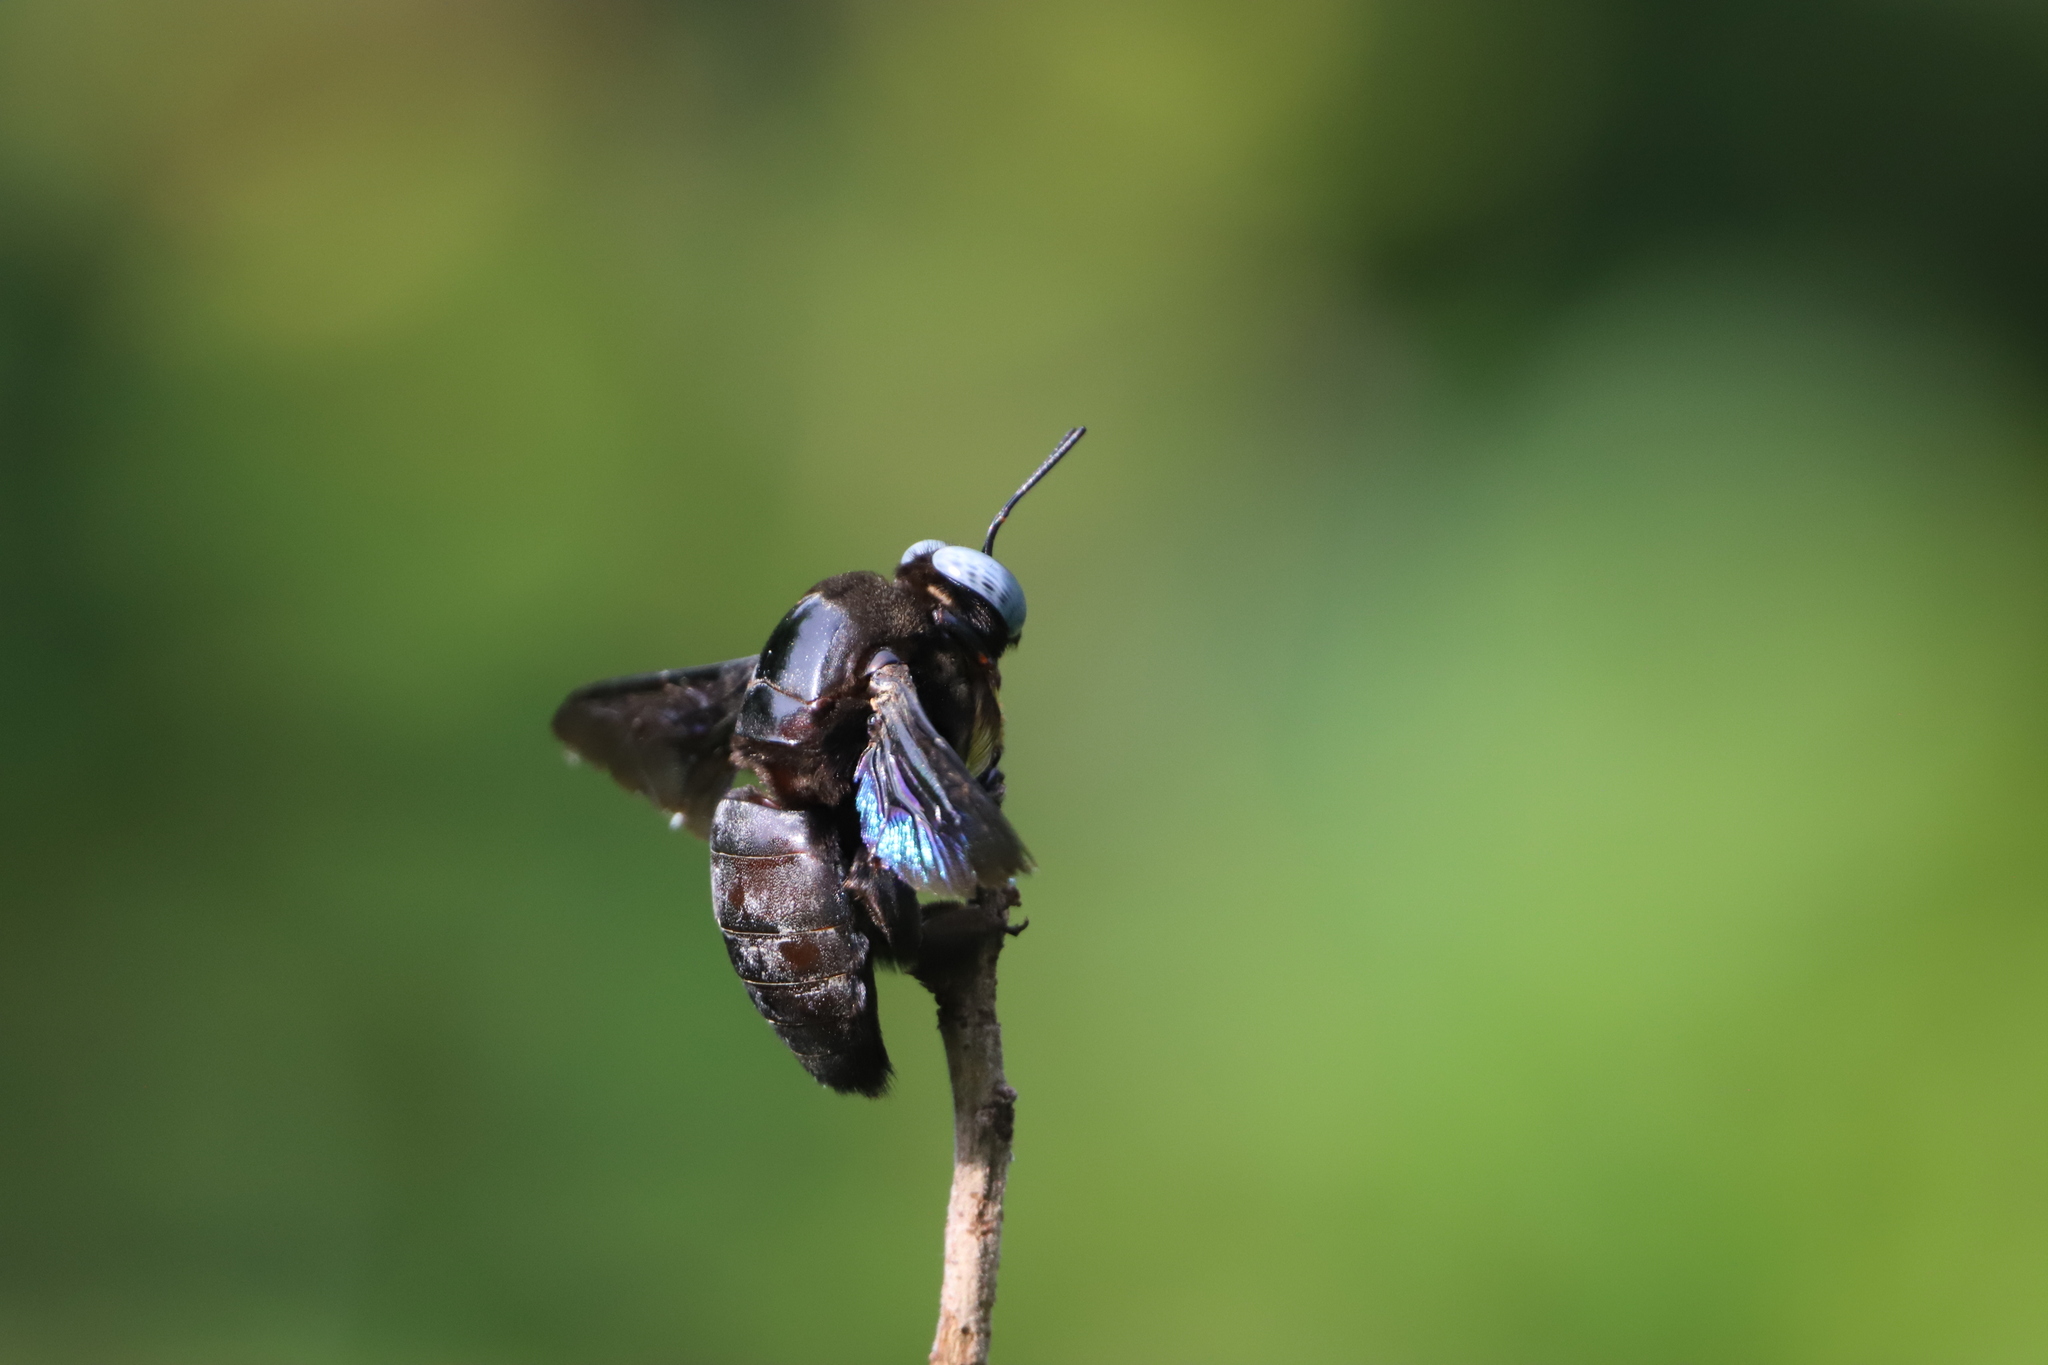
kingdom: Animalia
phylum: Arthropoda
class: Insecta
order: Hymenoptera
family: Apidae
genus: Xylocopa
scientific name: Xylocopa tenuiscapa
